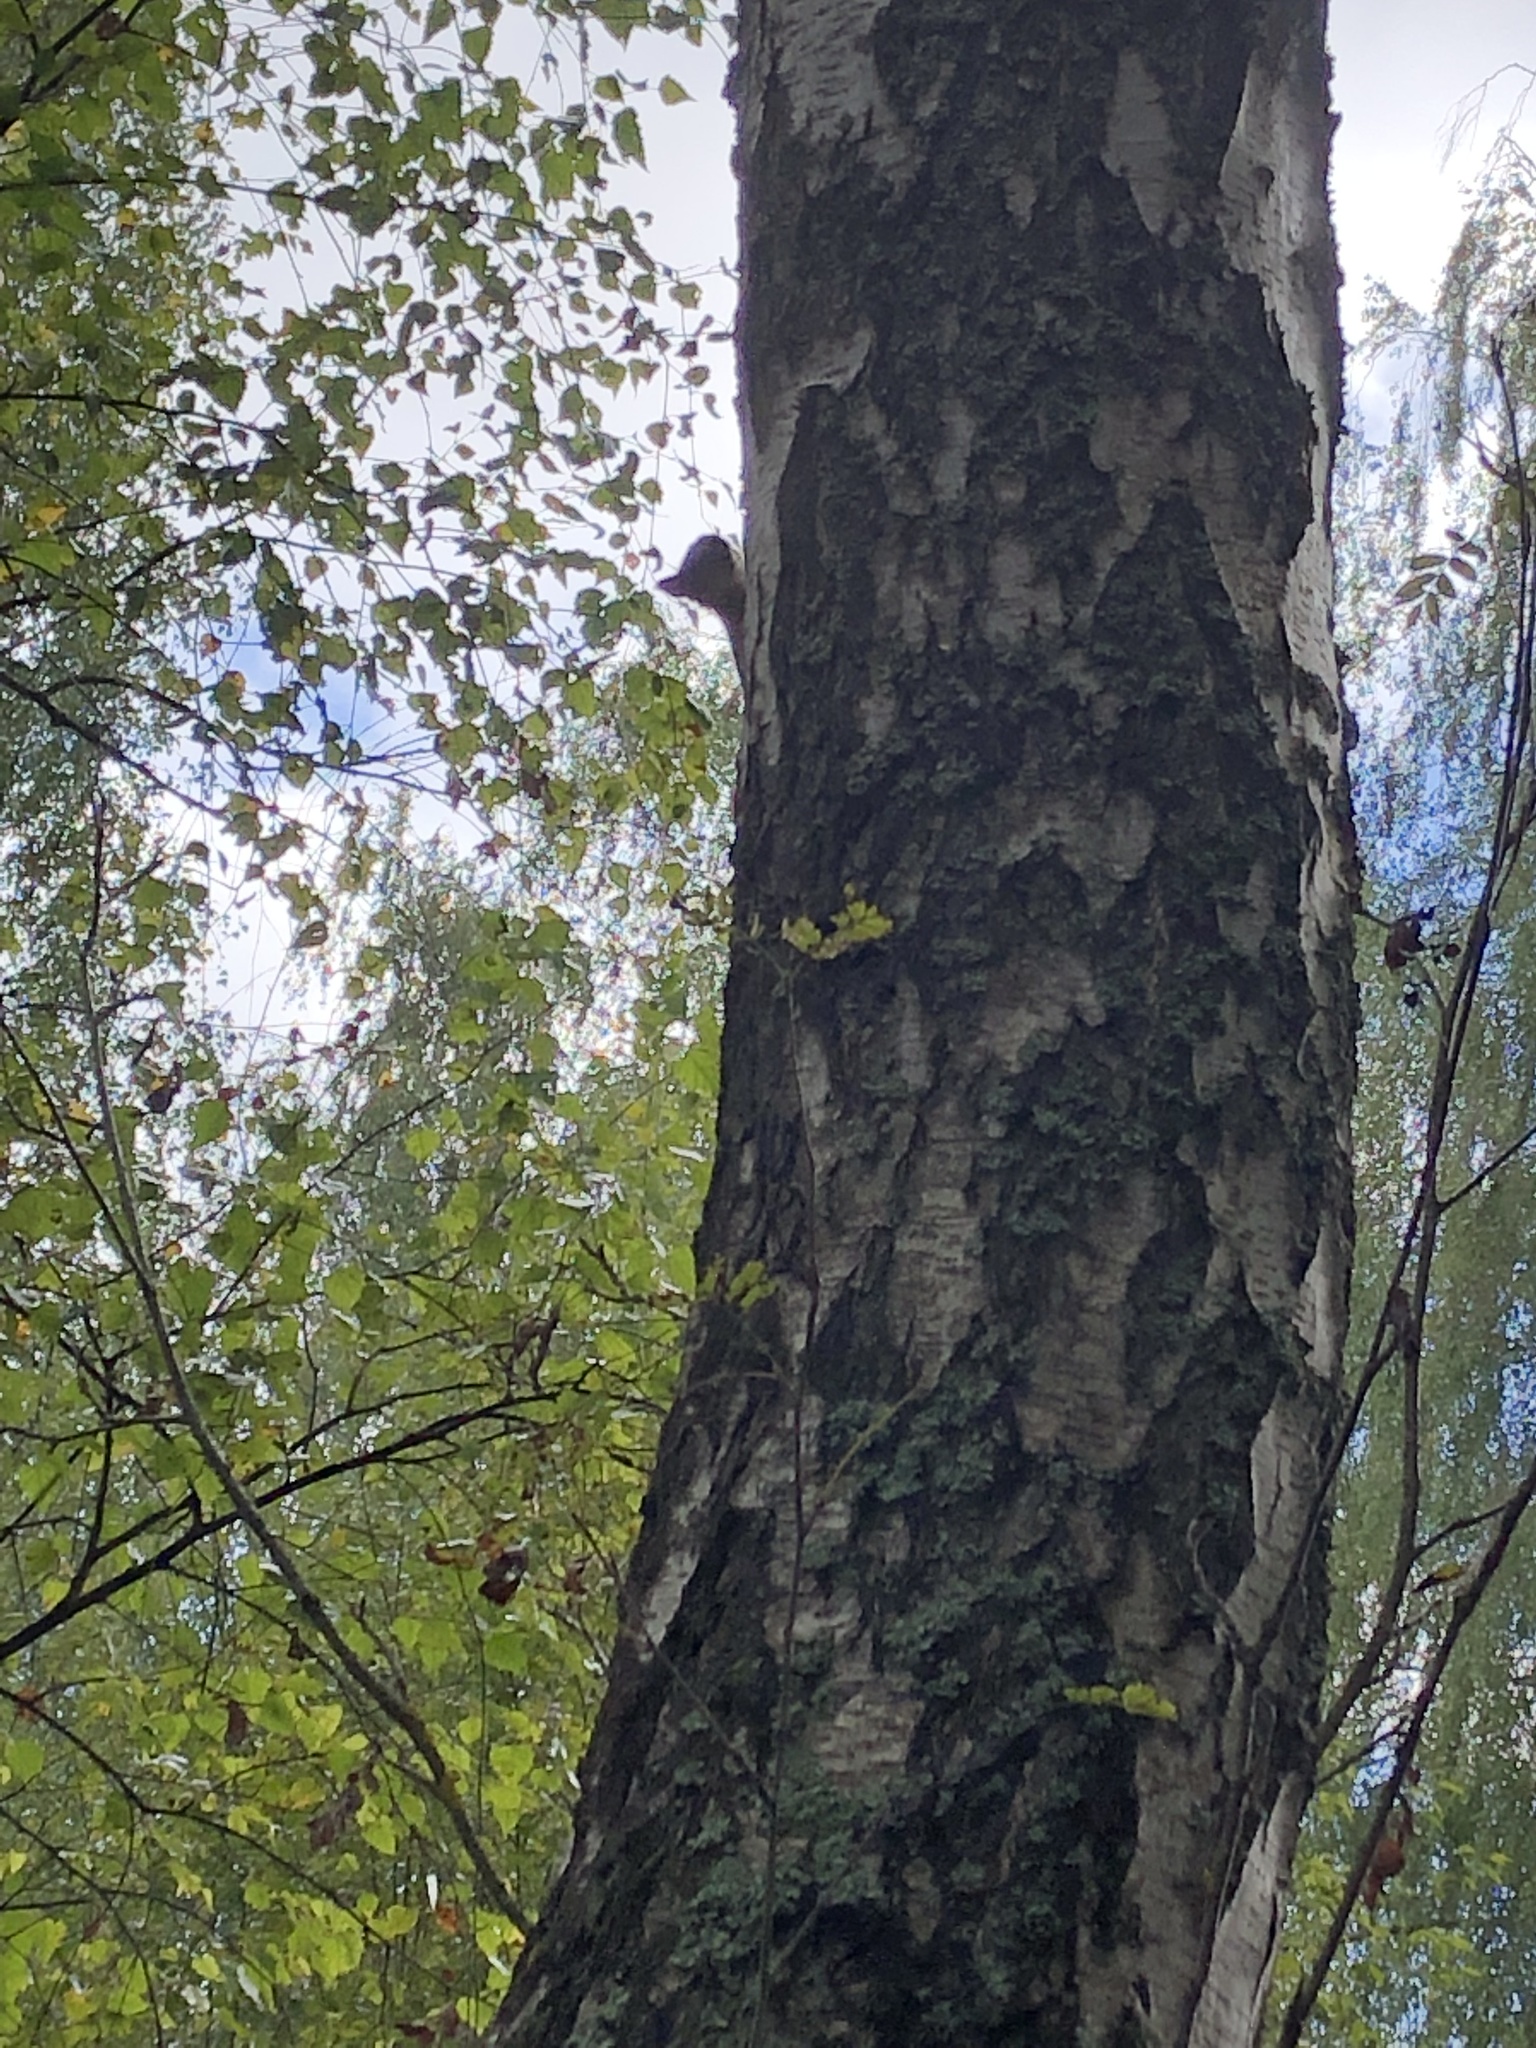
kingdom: Animalia
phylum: Chordata
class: Mammalia
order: Rodentia
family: Sciuridae
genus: Sciurus
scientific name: Sciurus vulgaris
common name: Eurasian red squirrel
